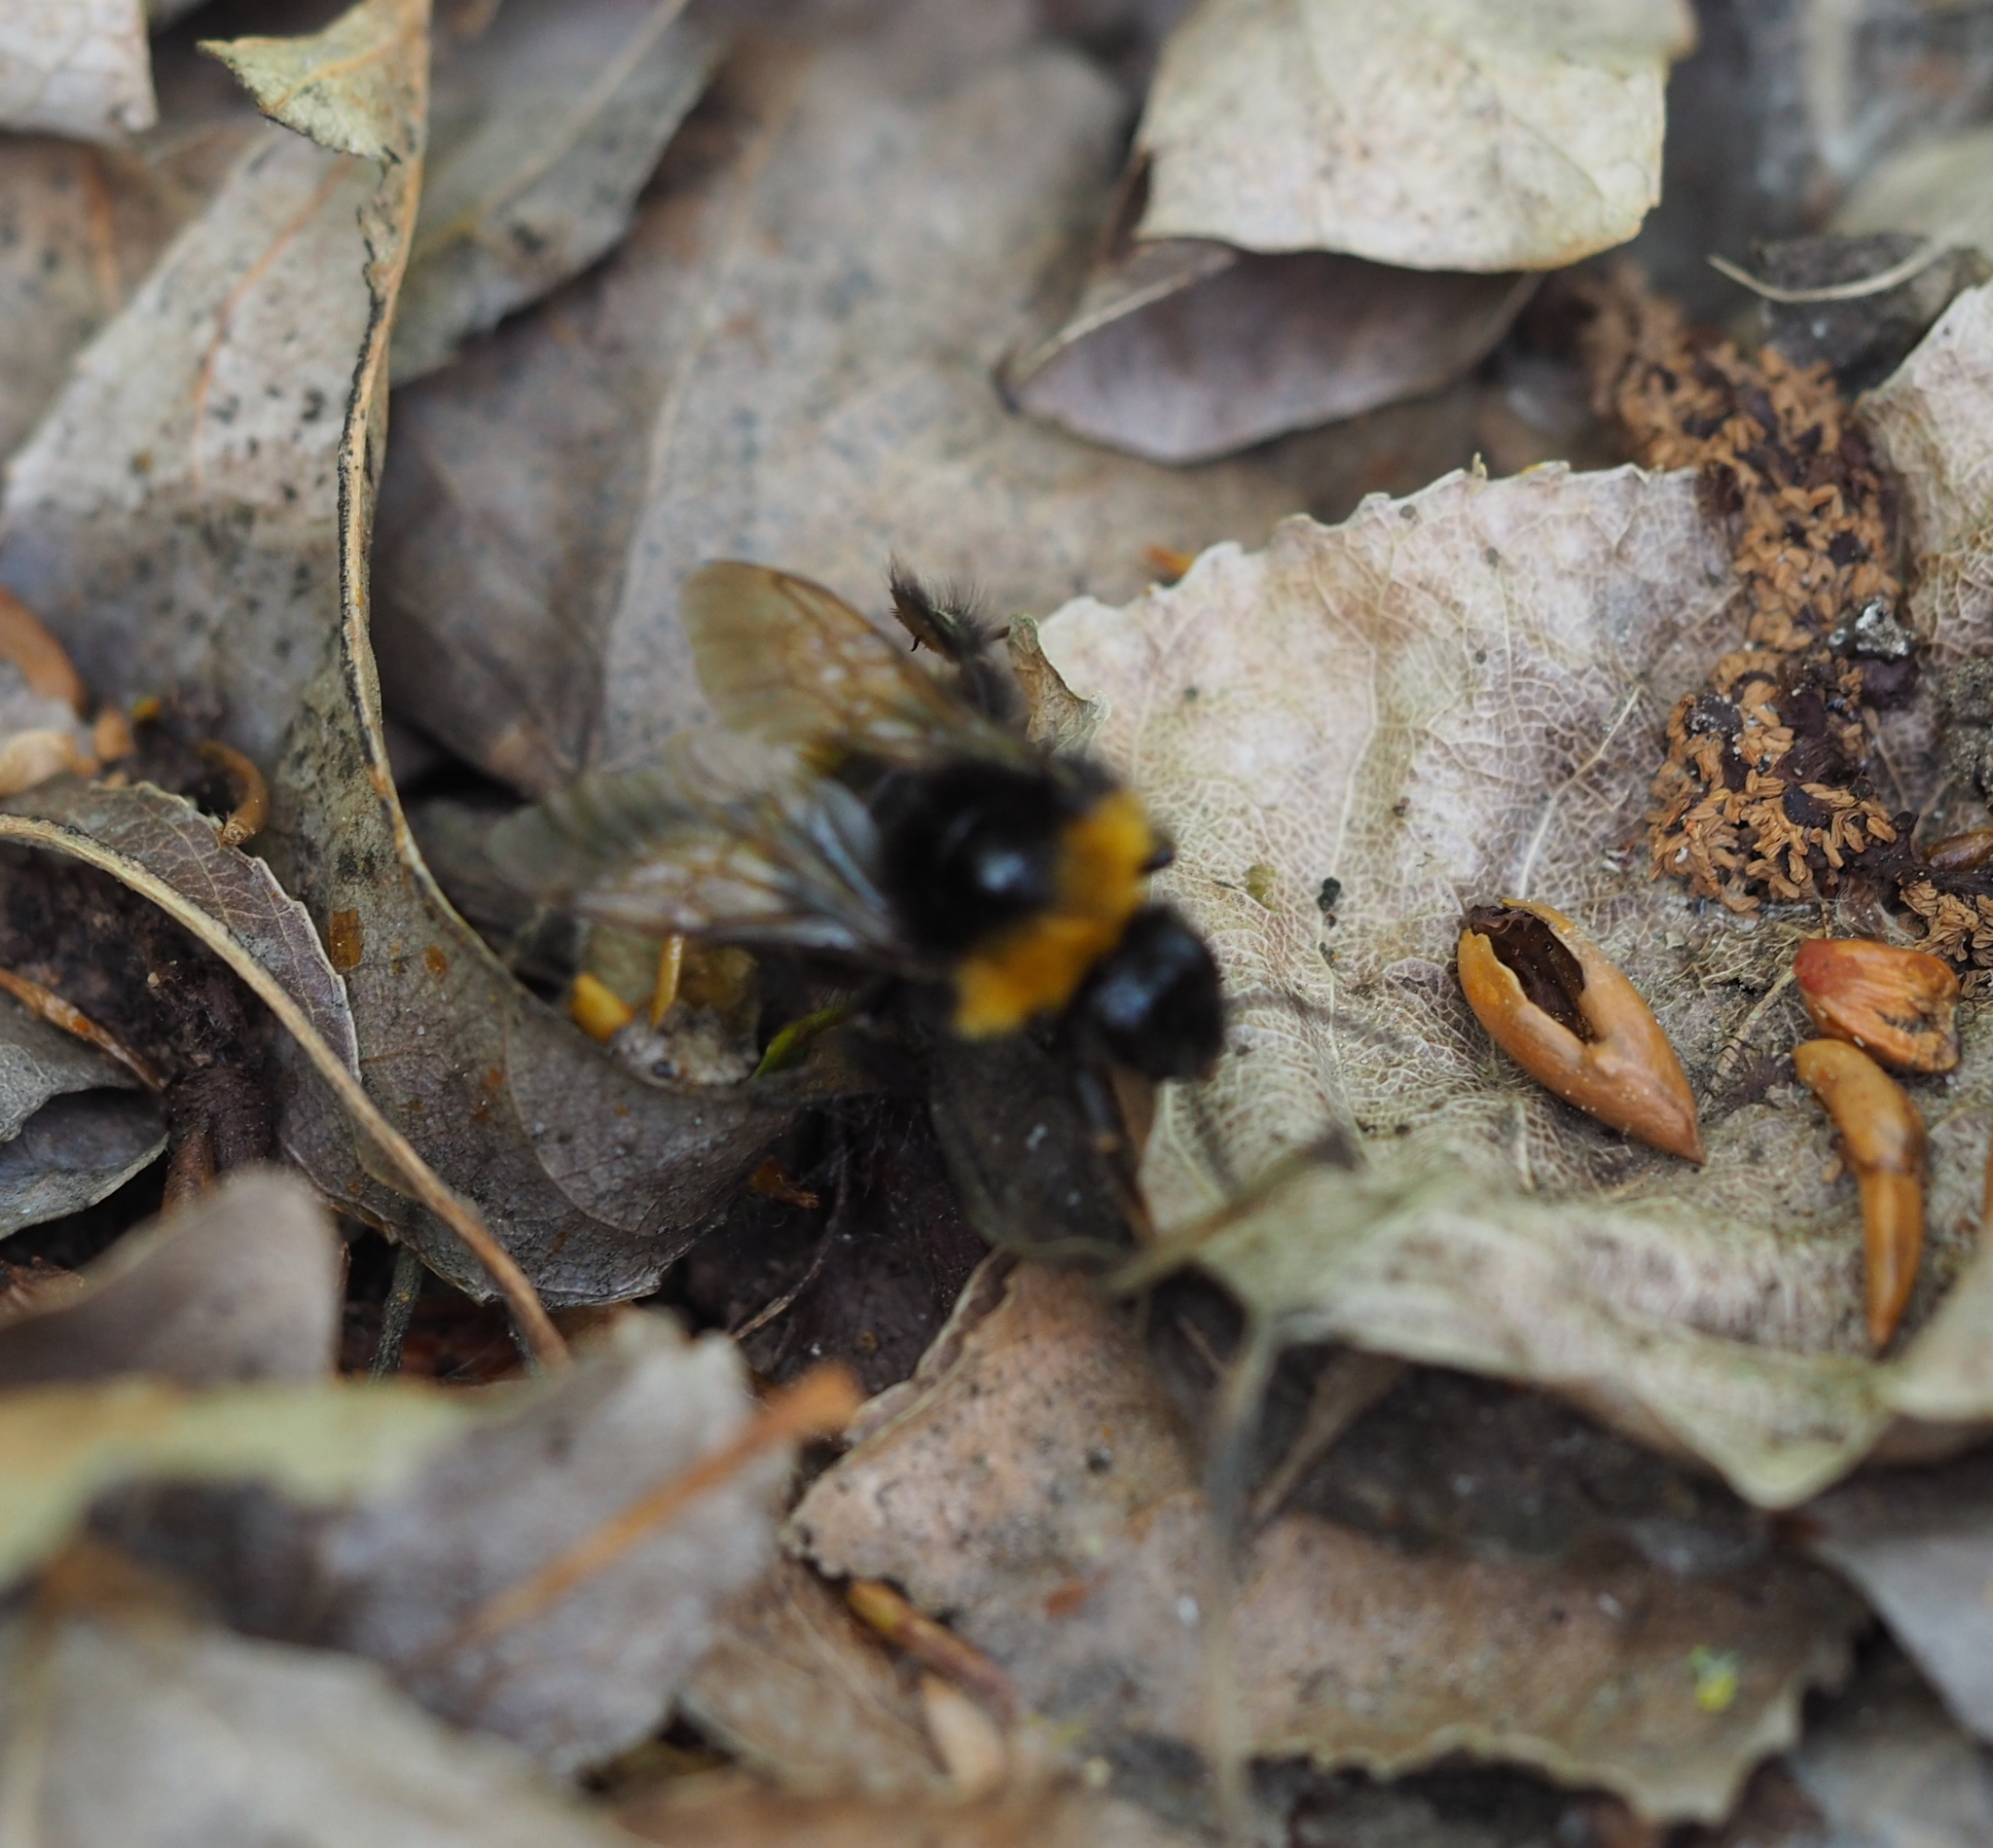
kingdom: Animalia
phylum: Arthropoda
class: Insecta
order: Hymenoptera
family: Apidae
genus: Bombus
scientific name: Bombus haematurus
